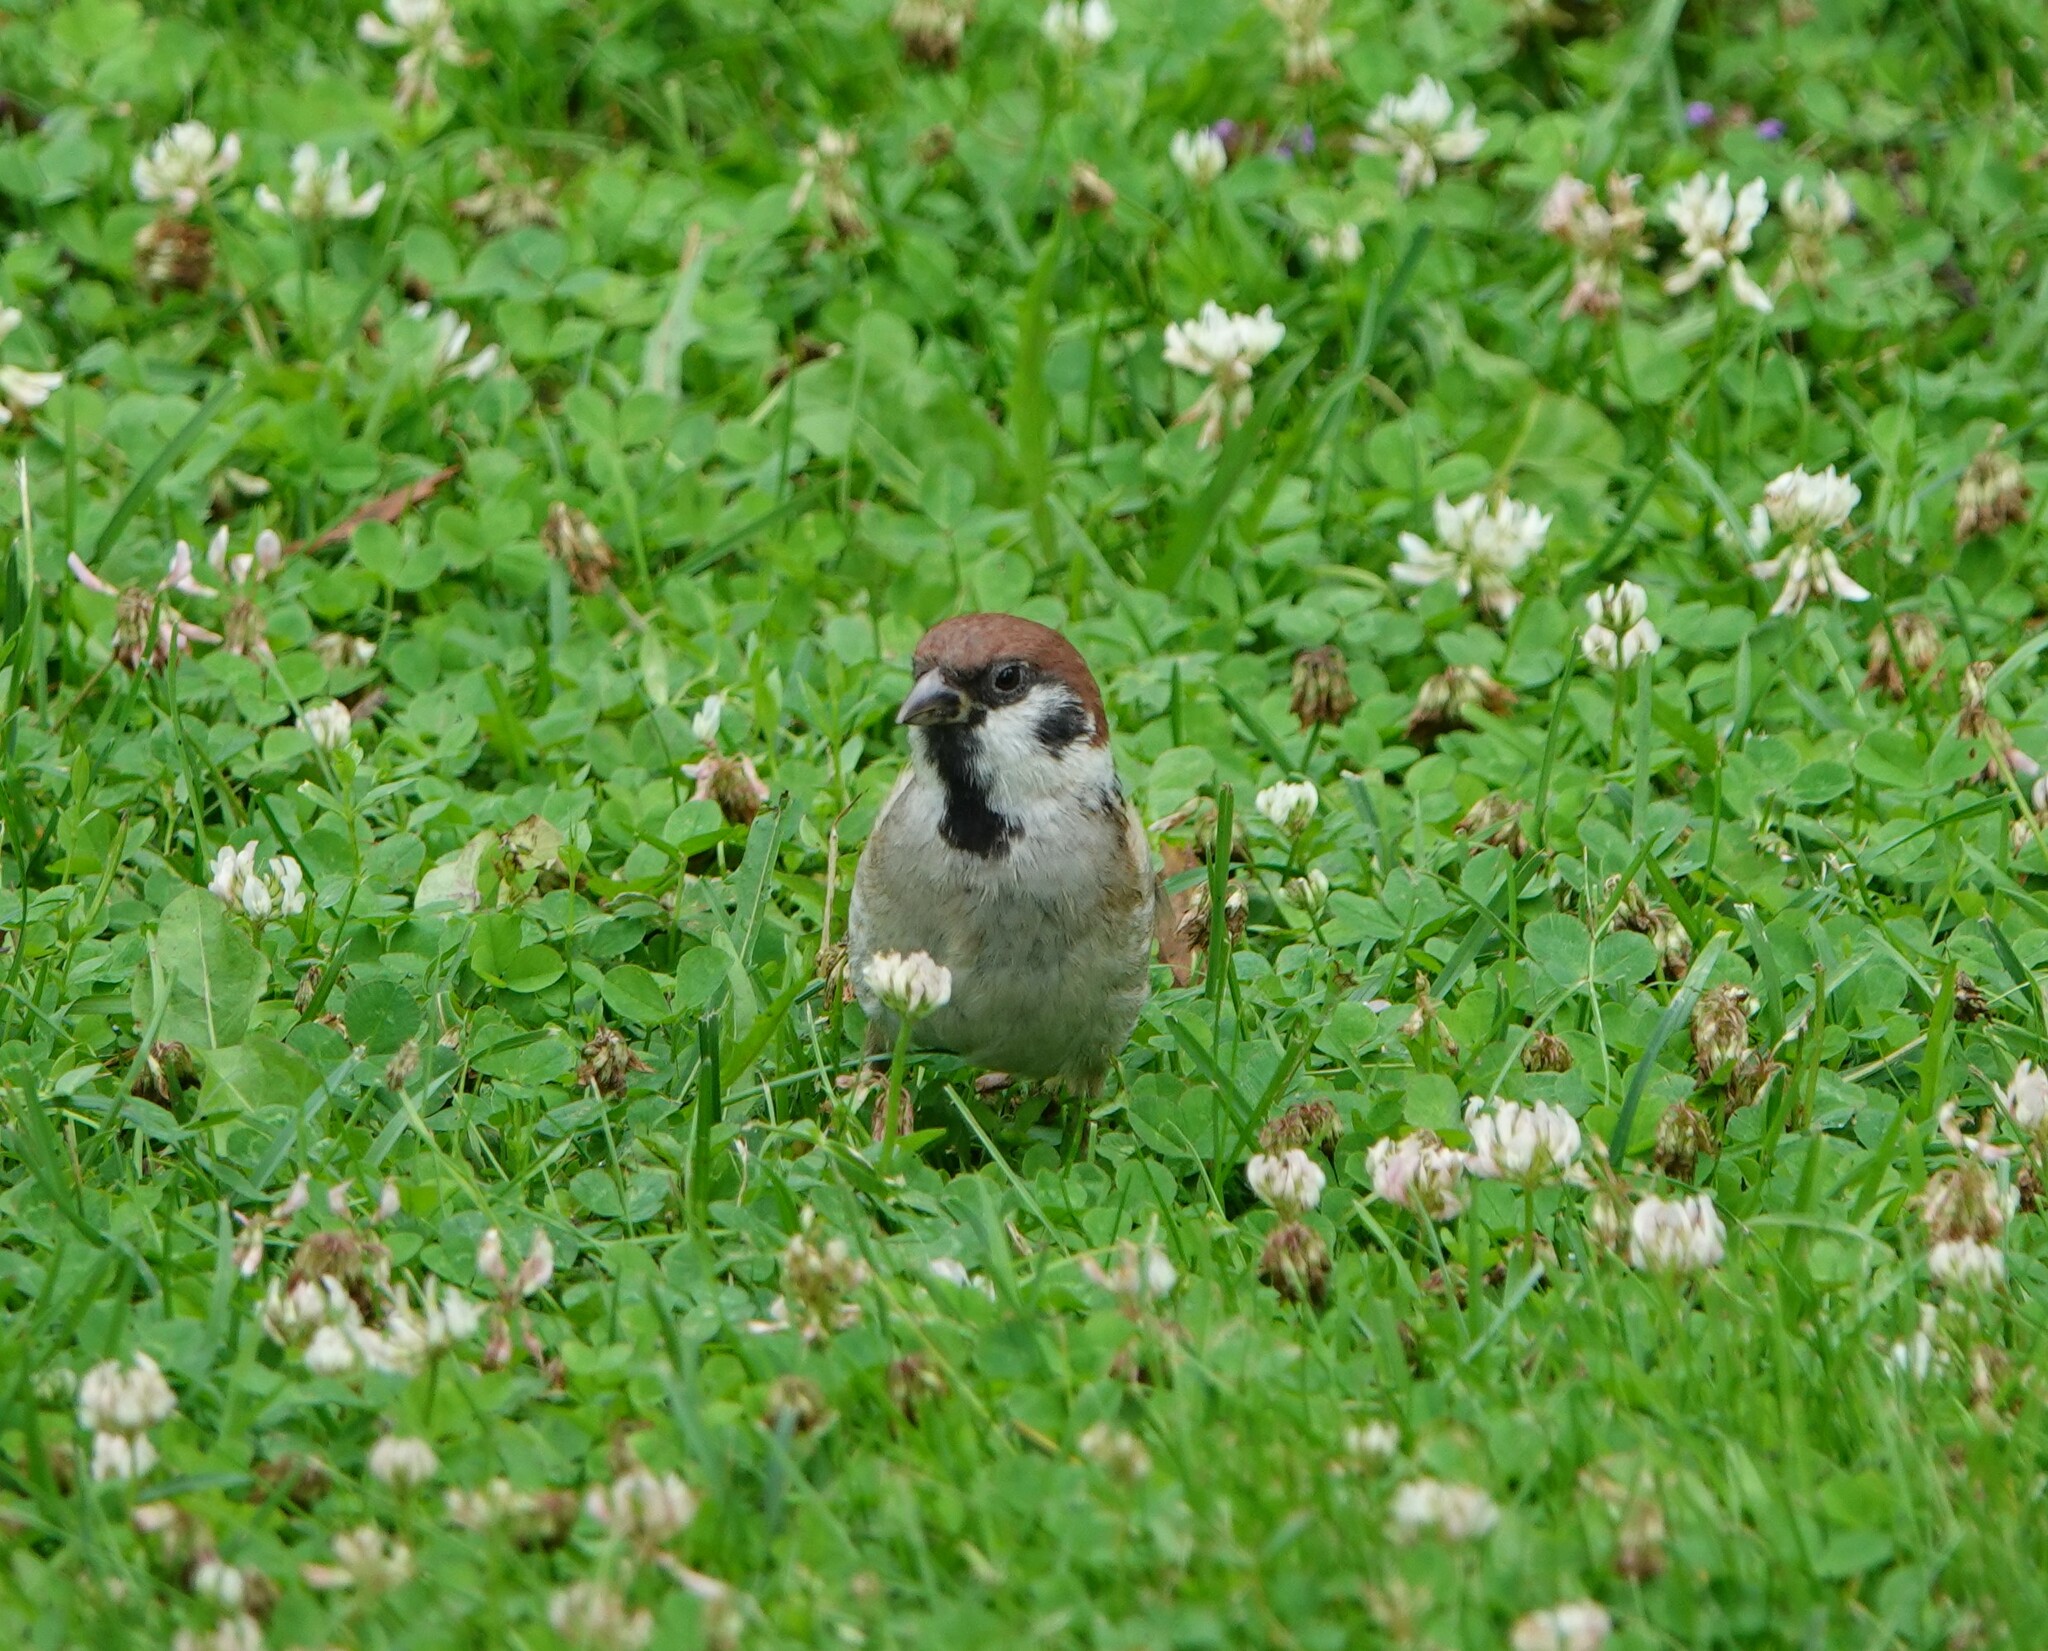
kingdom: Animalia
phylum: Chordata
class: Aves
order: Passeriformes
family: Passeridae
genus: Passer
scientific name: Passer montanus
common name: Eurasian tree sparrow
